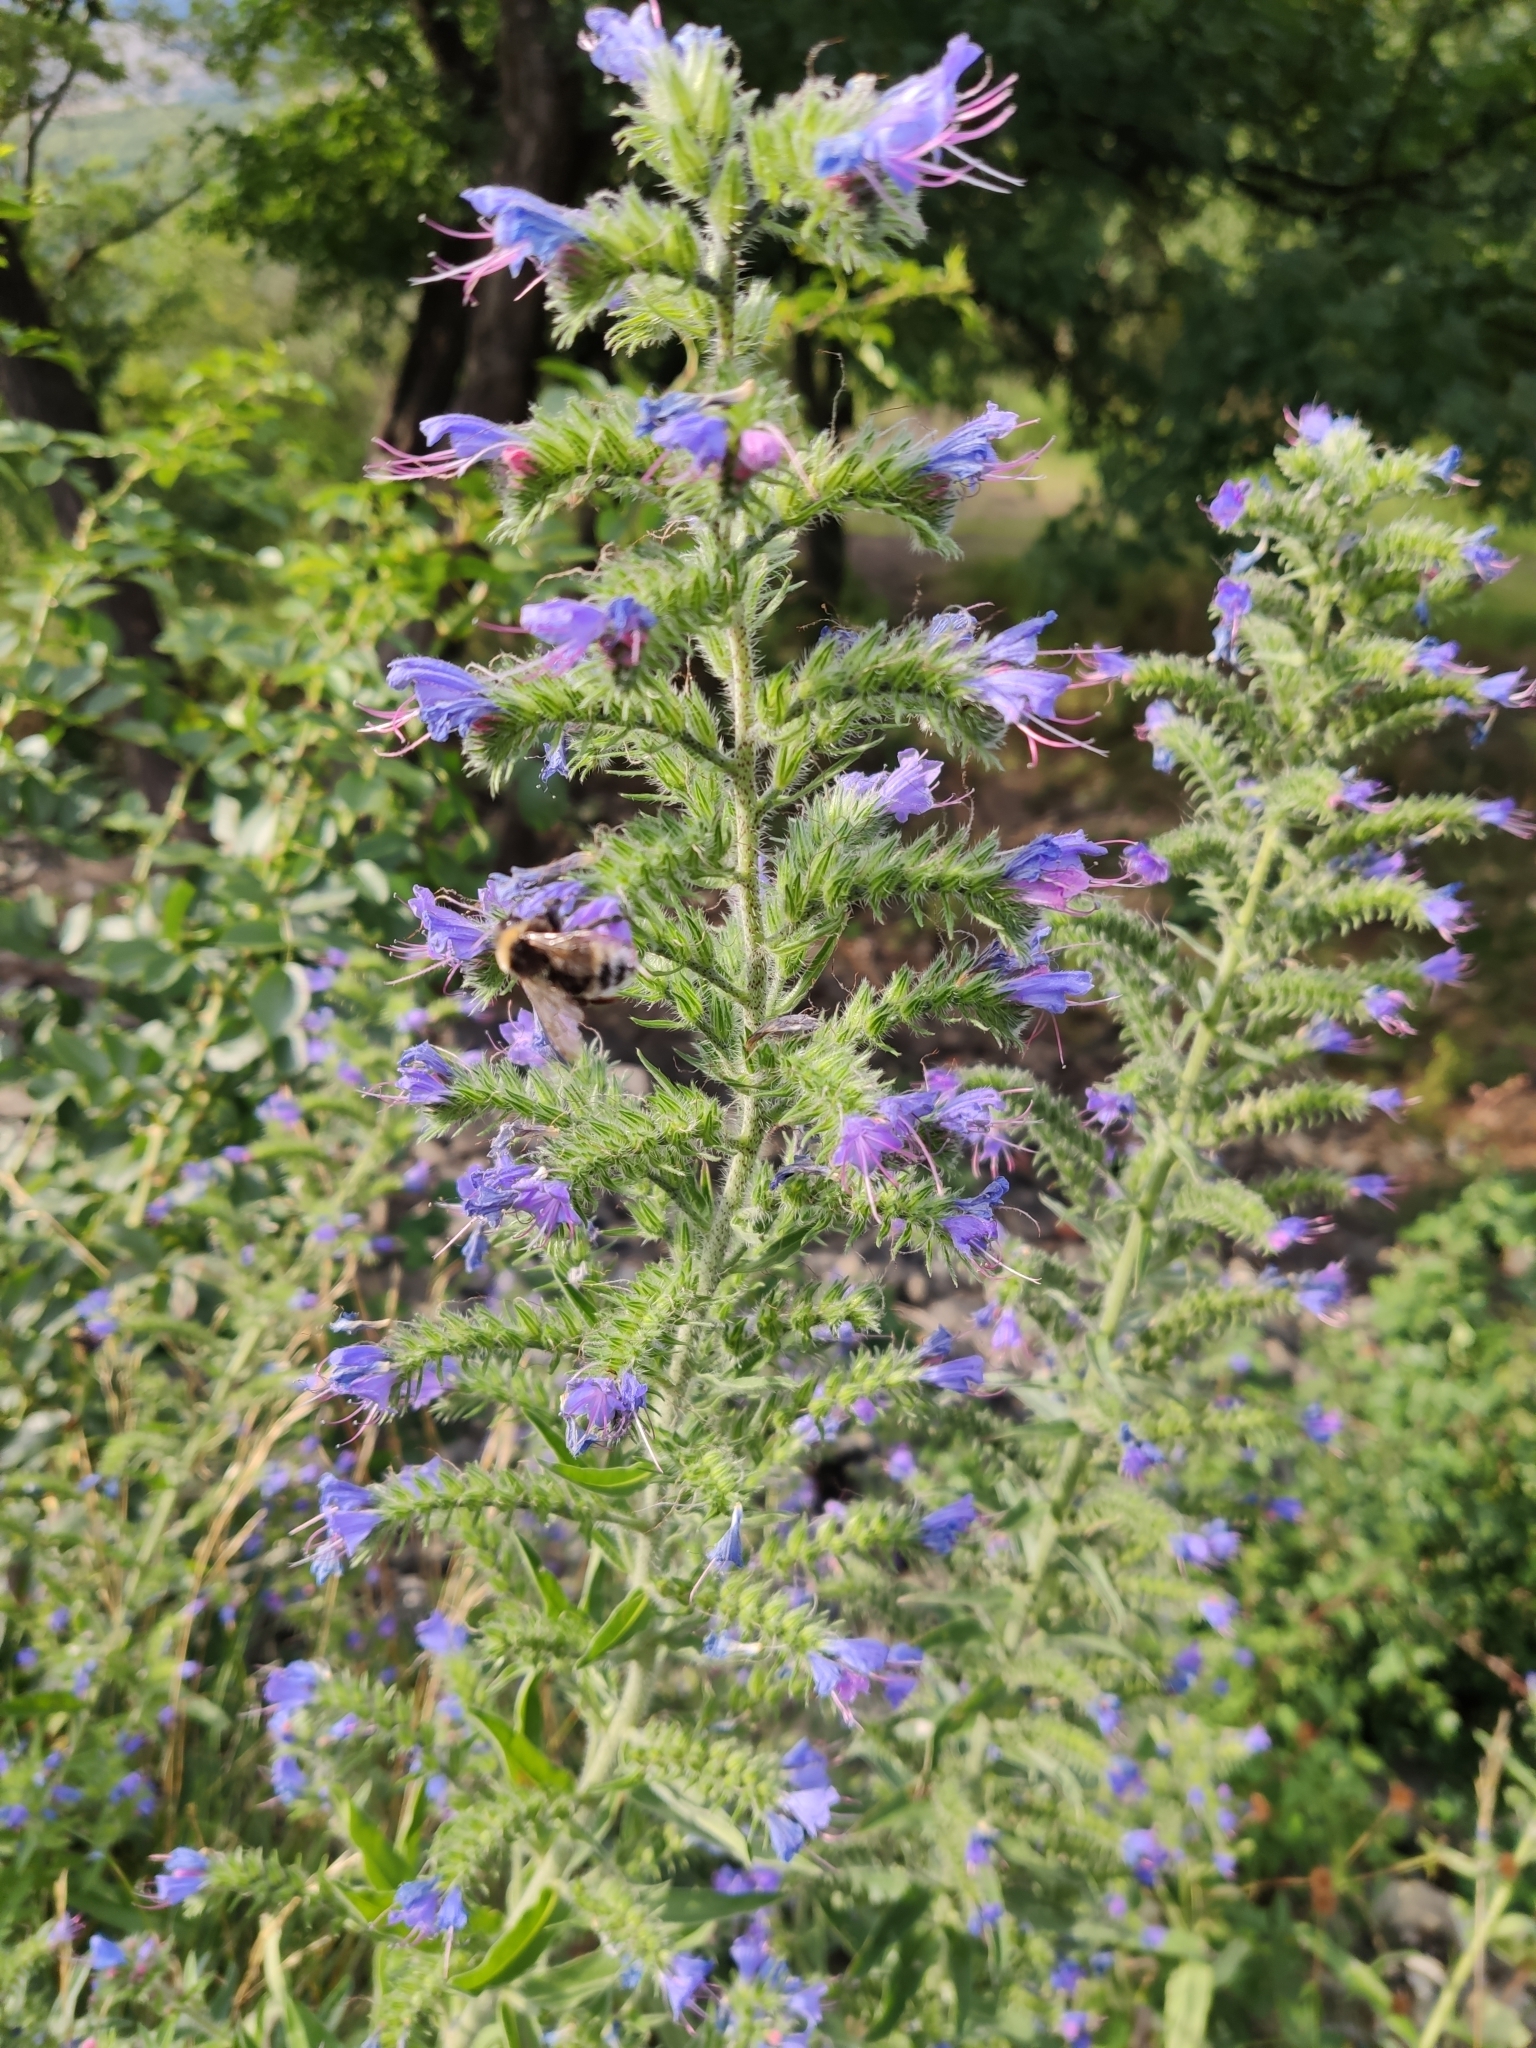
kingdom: Plantae
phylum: Tracheophyta
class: Magnoliopsida
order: Boraginales
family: Boraginaceae
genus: Echium
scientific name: Echium vulgare
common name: Common viper's bugloss
